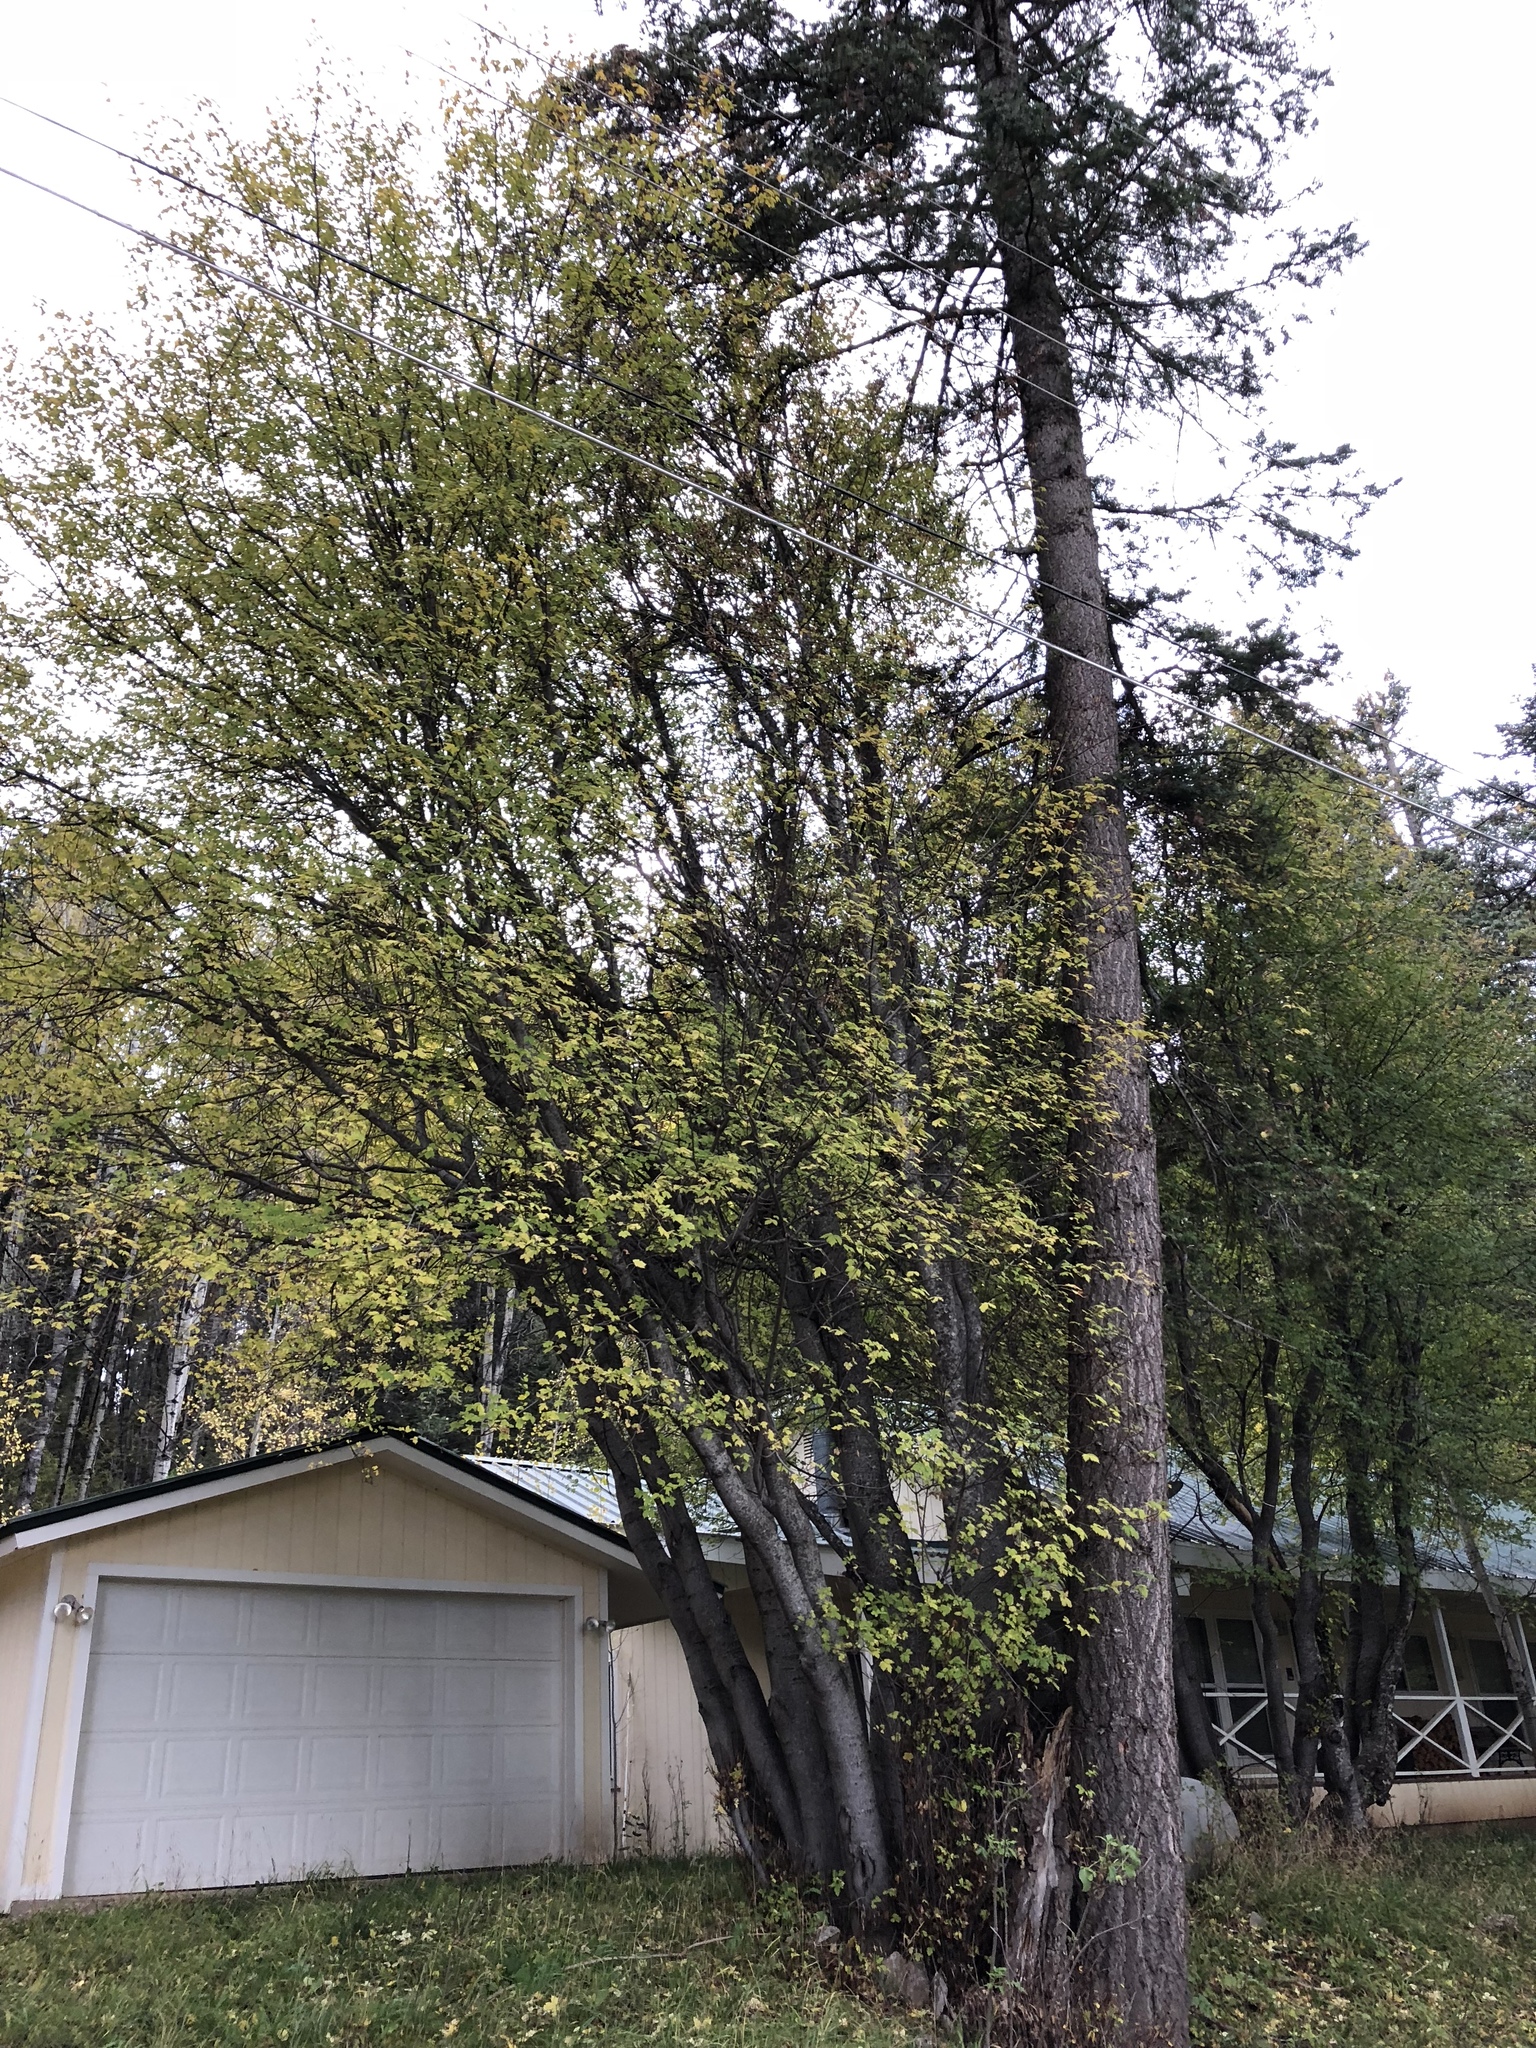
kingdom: Plantae
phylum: Tracheophyta
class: Magnoliopsida
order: Sapindales
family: Sapindaceae
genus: Acer
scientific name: Acer glabrum
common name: Rocky mountain maple
